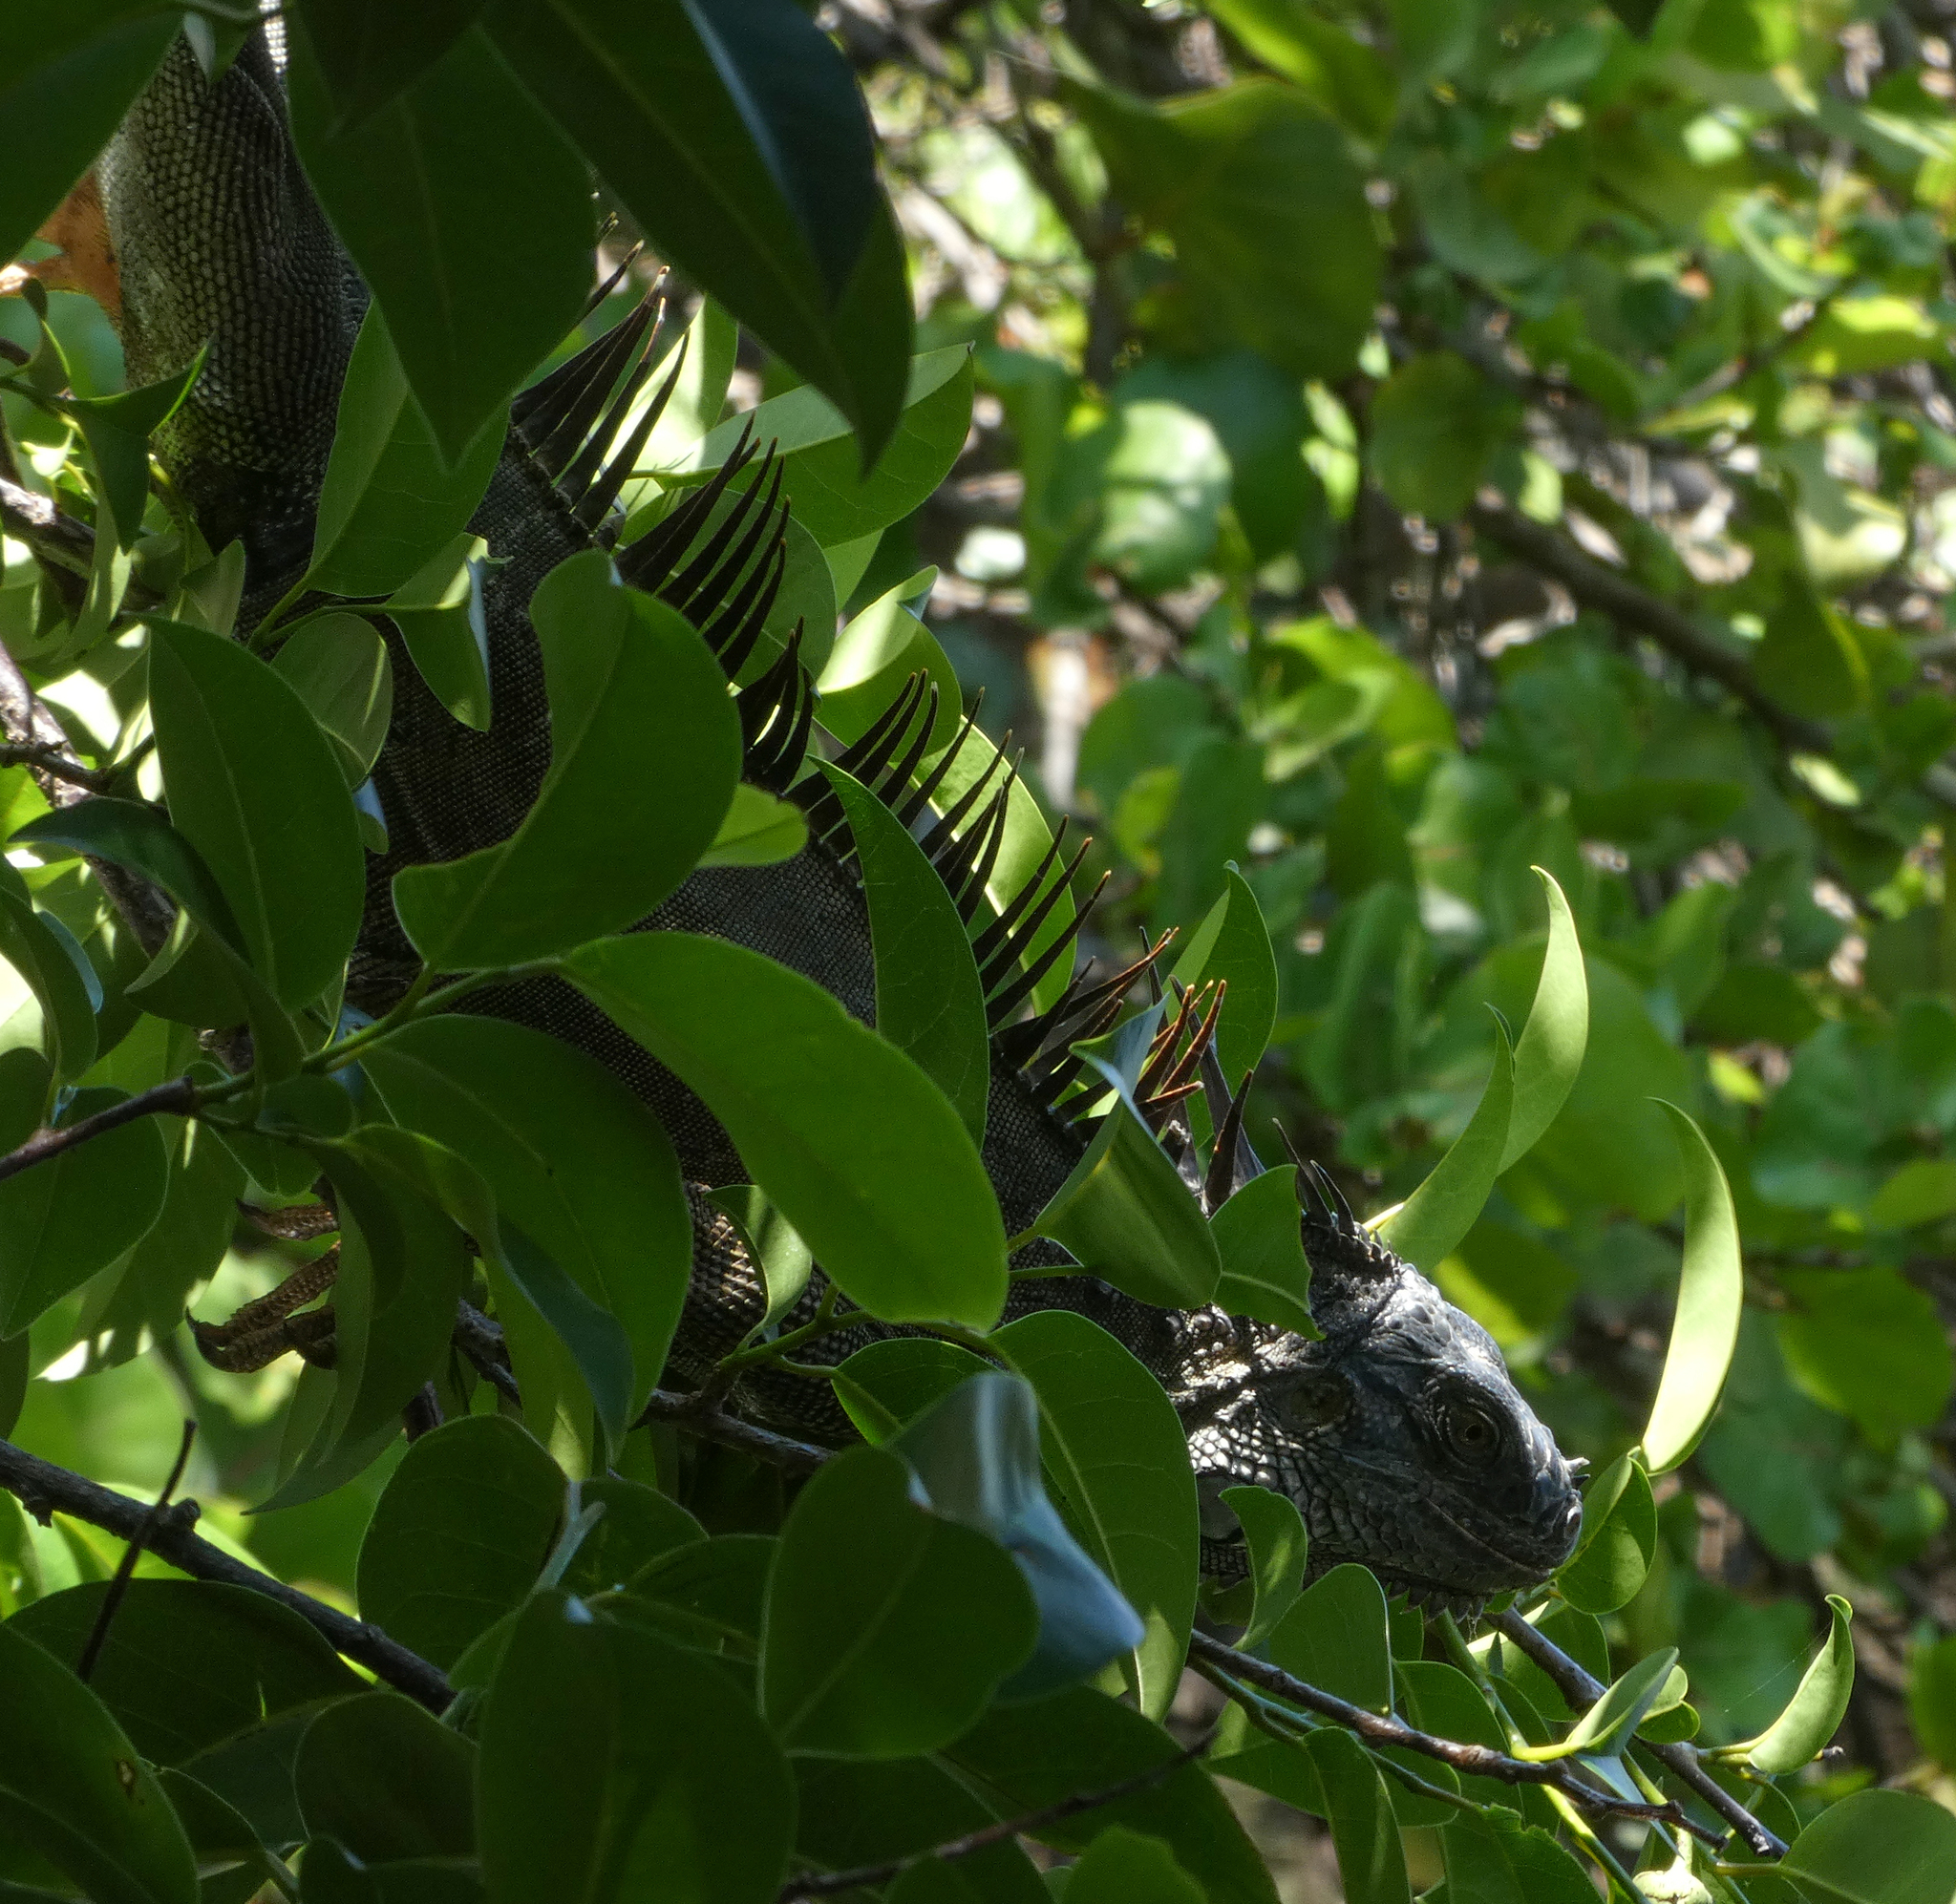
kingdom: Animalia
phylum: Chordata
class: Squamata
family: Iguanidae
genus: Iguana
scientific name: Iguana iguana
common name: Green iguana
